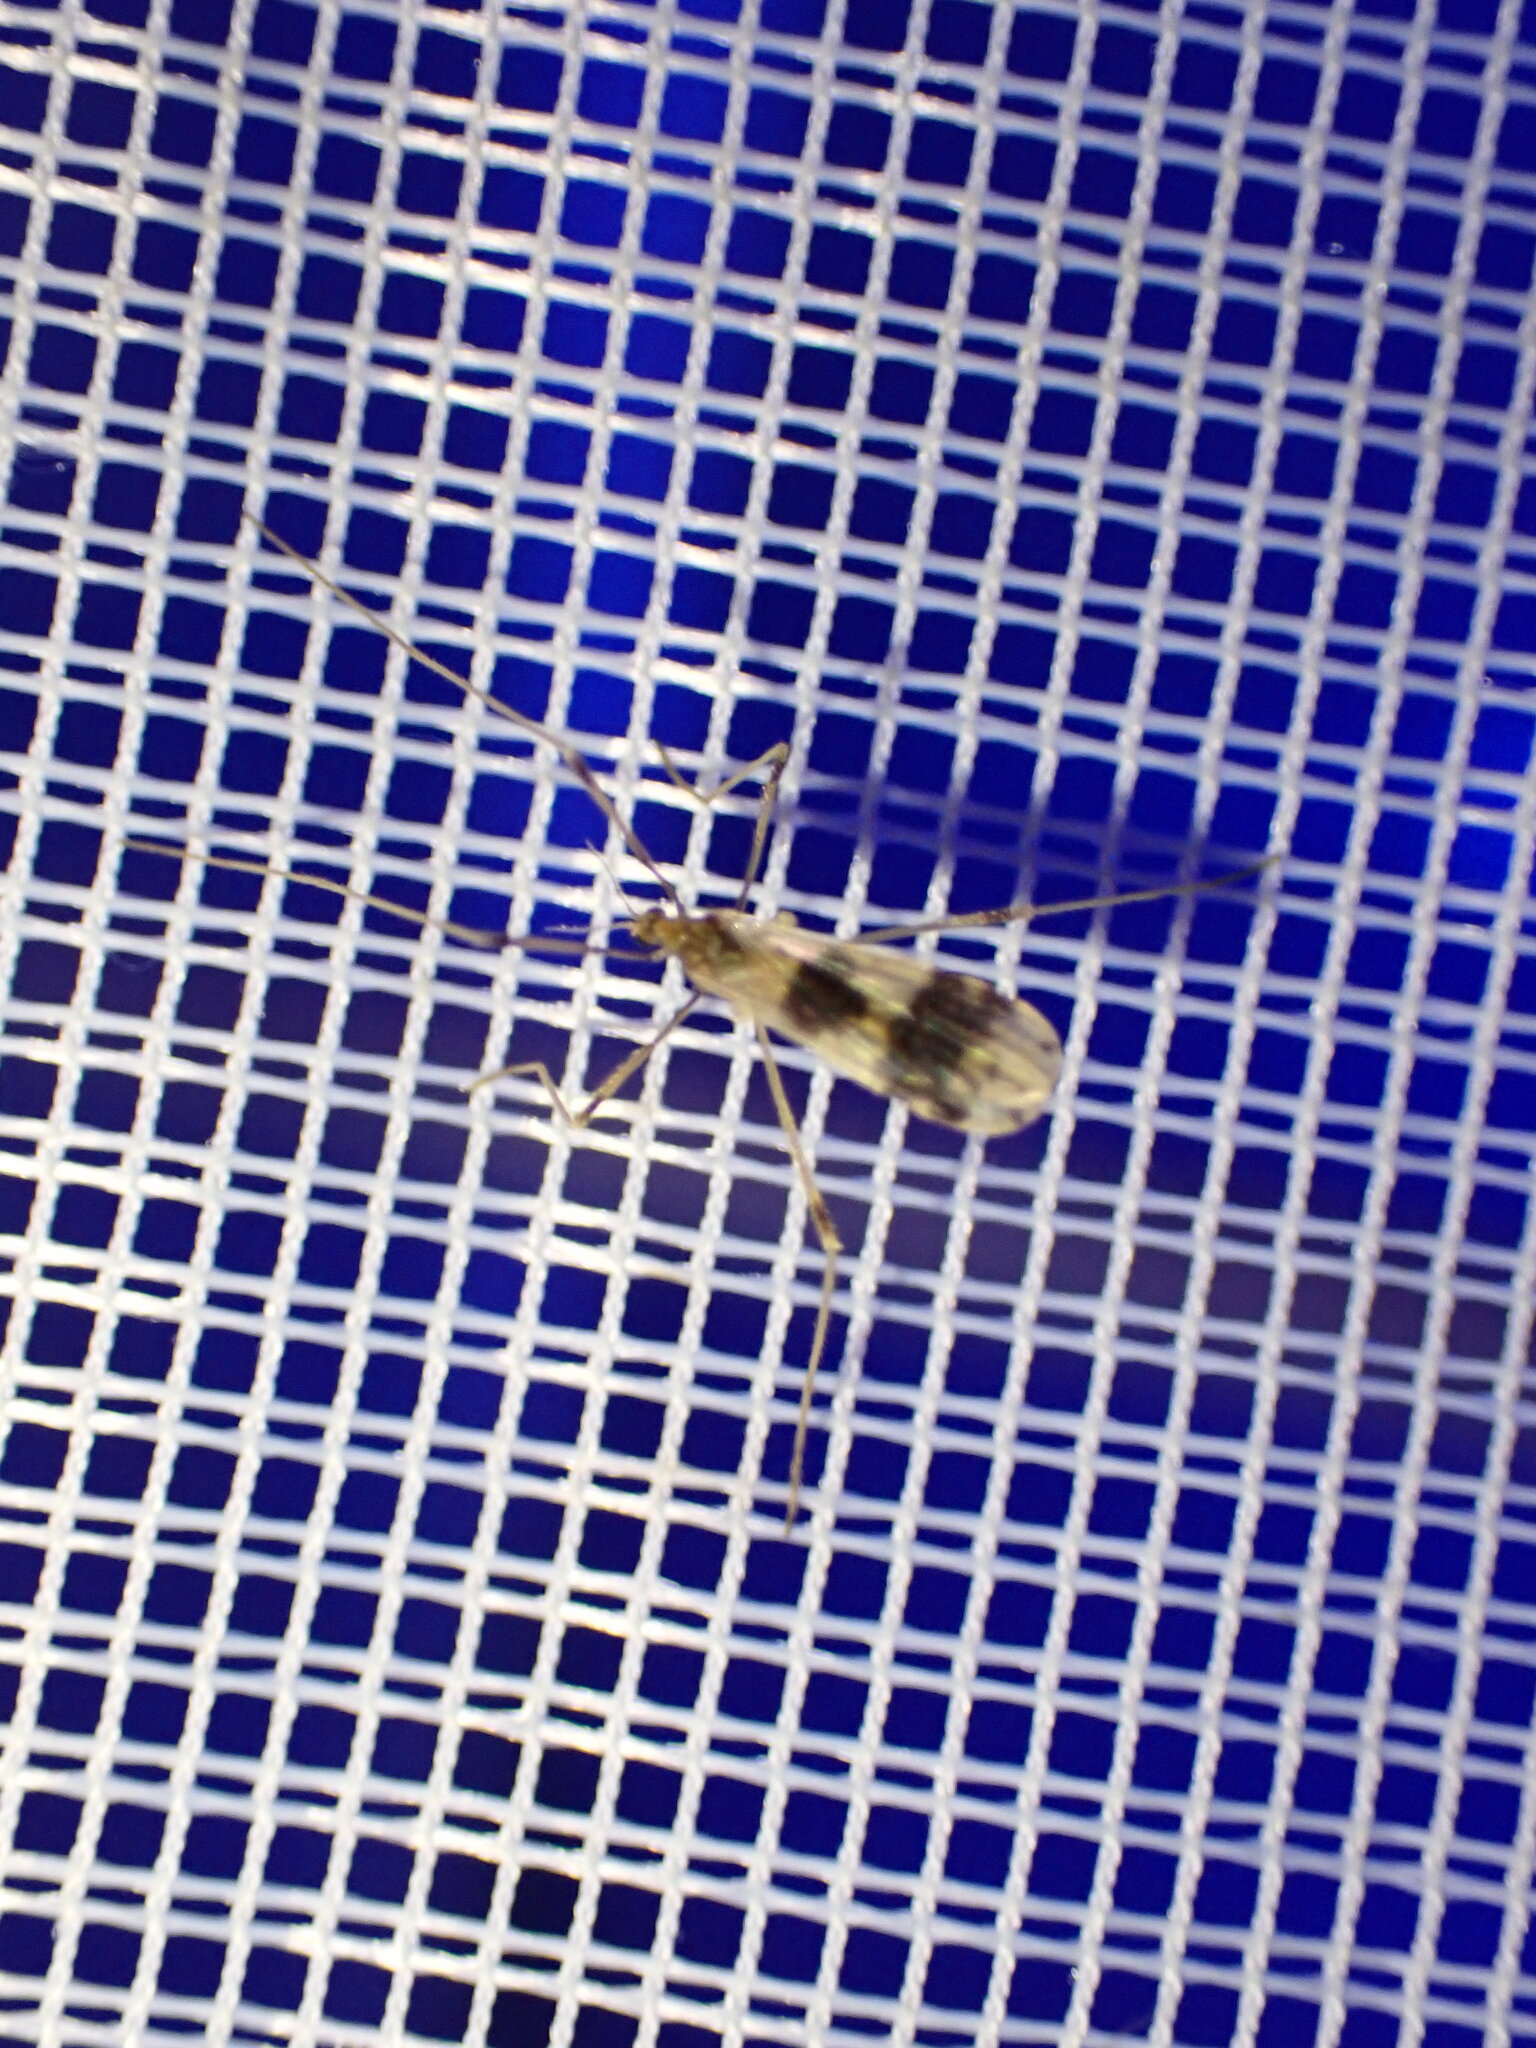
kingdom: Animalia
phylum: Arthropoda
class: Insecta
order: Diptera
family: Limoniidae
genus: Ilisia
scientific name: Ilisia venusta
